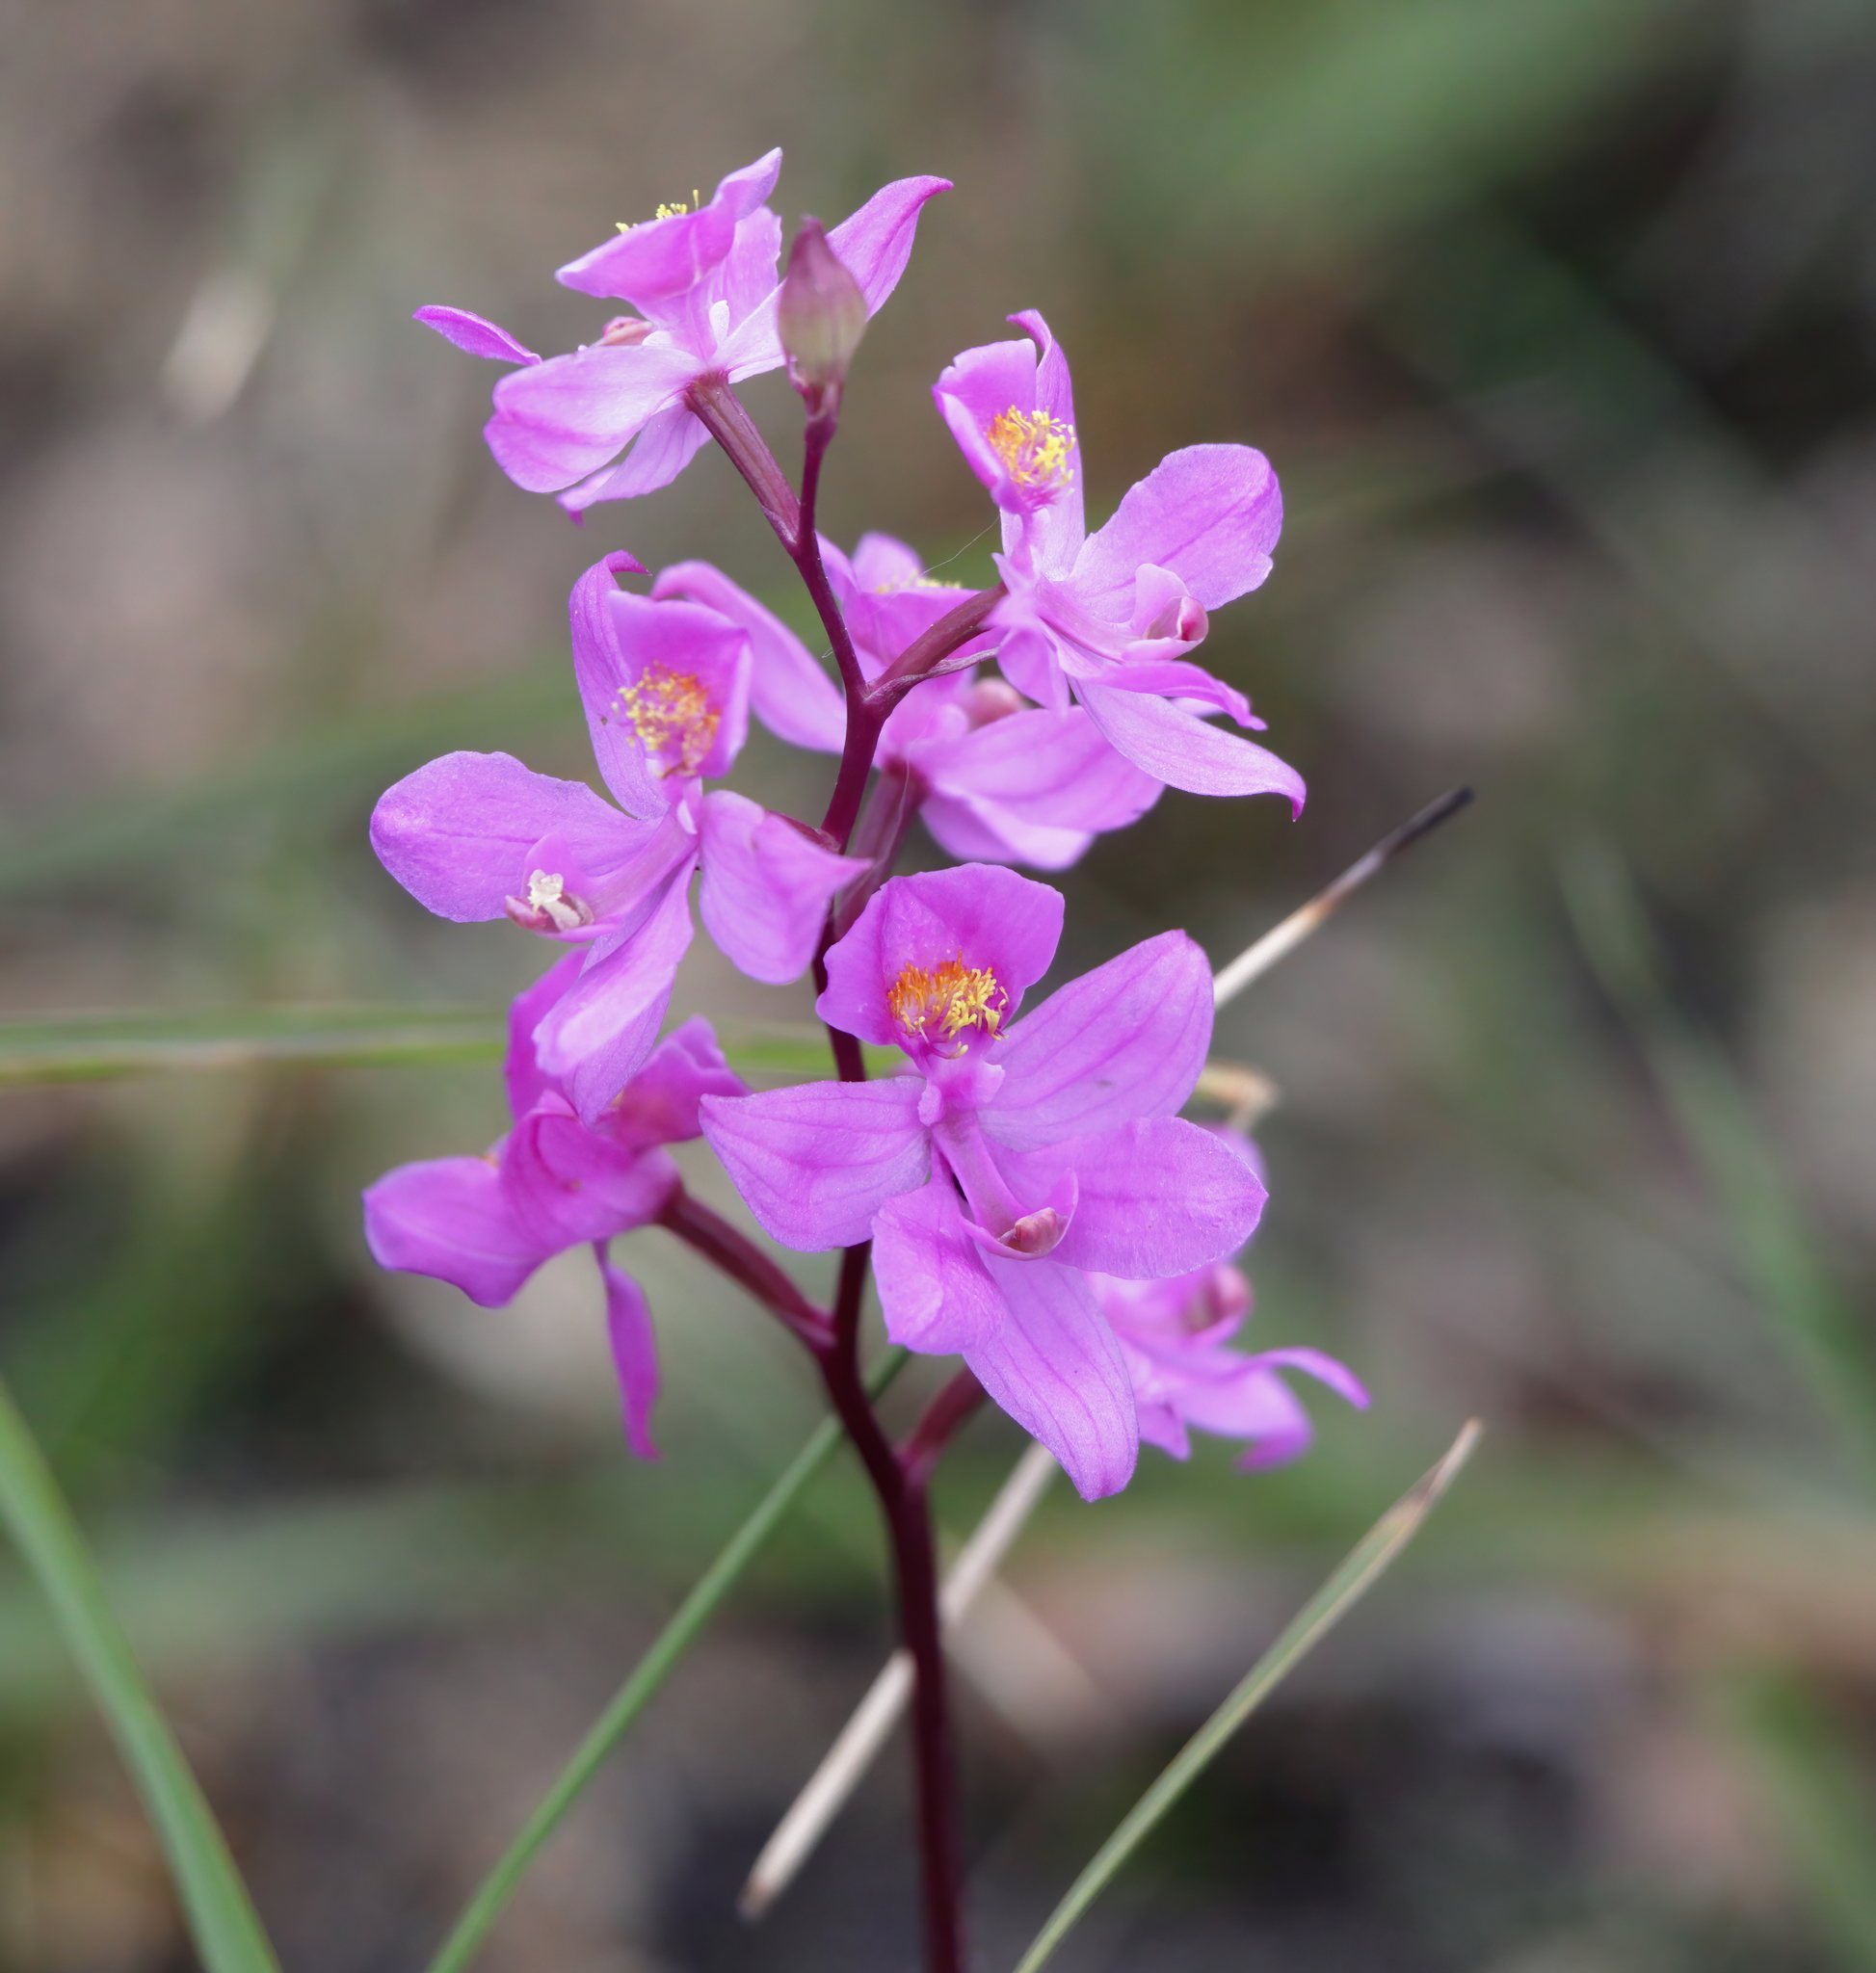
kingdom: Plantae
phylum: Tracheophyta
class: Liliopsida
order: Asparagales
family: Orchidaceae
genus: Calopogon
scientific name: Calopogon multiflorus
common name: Many-flowered grass-pink orchid
